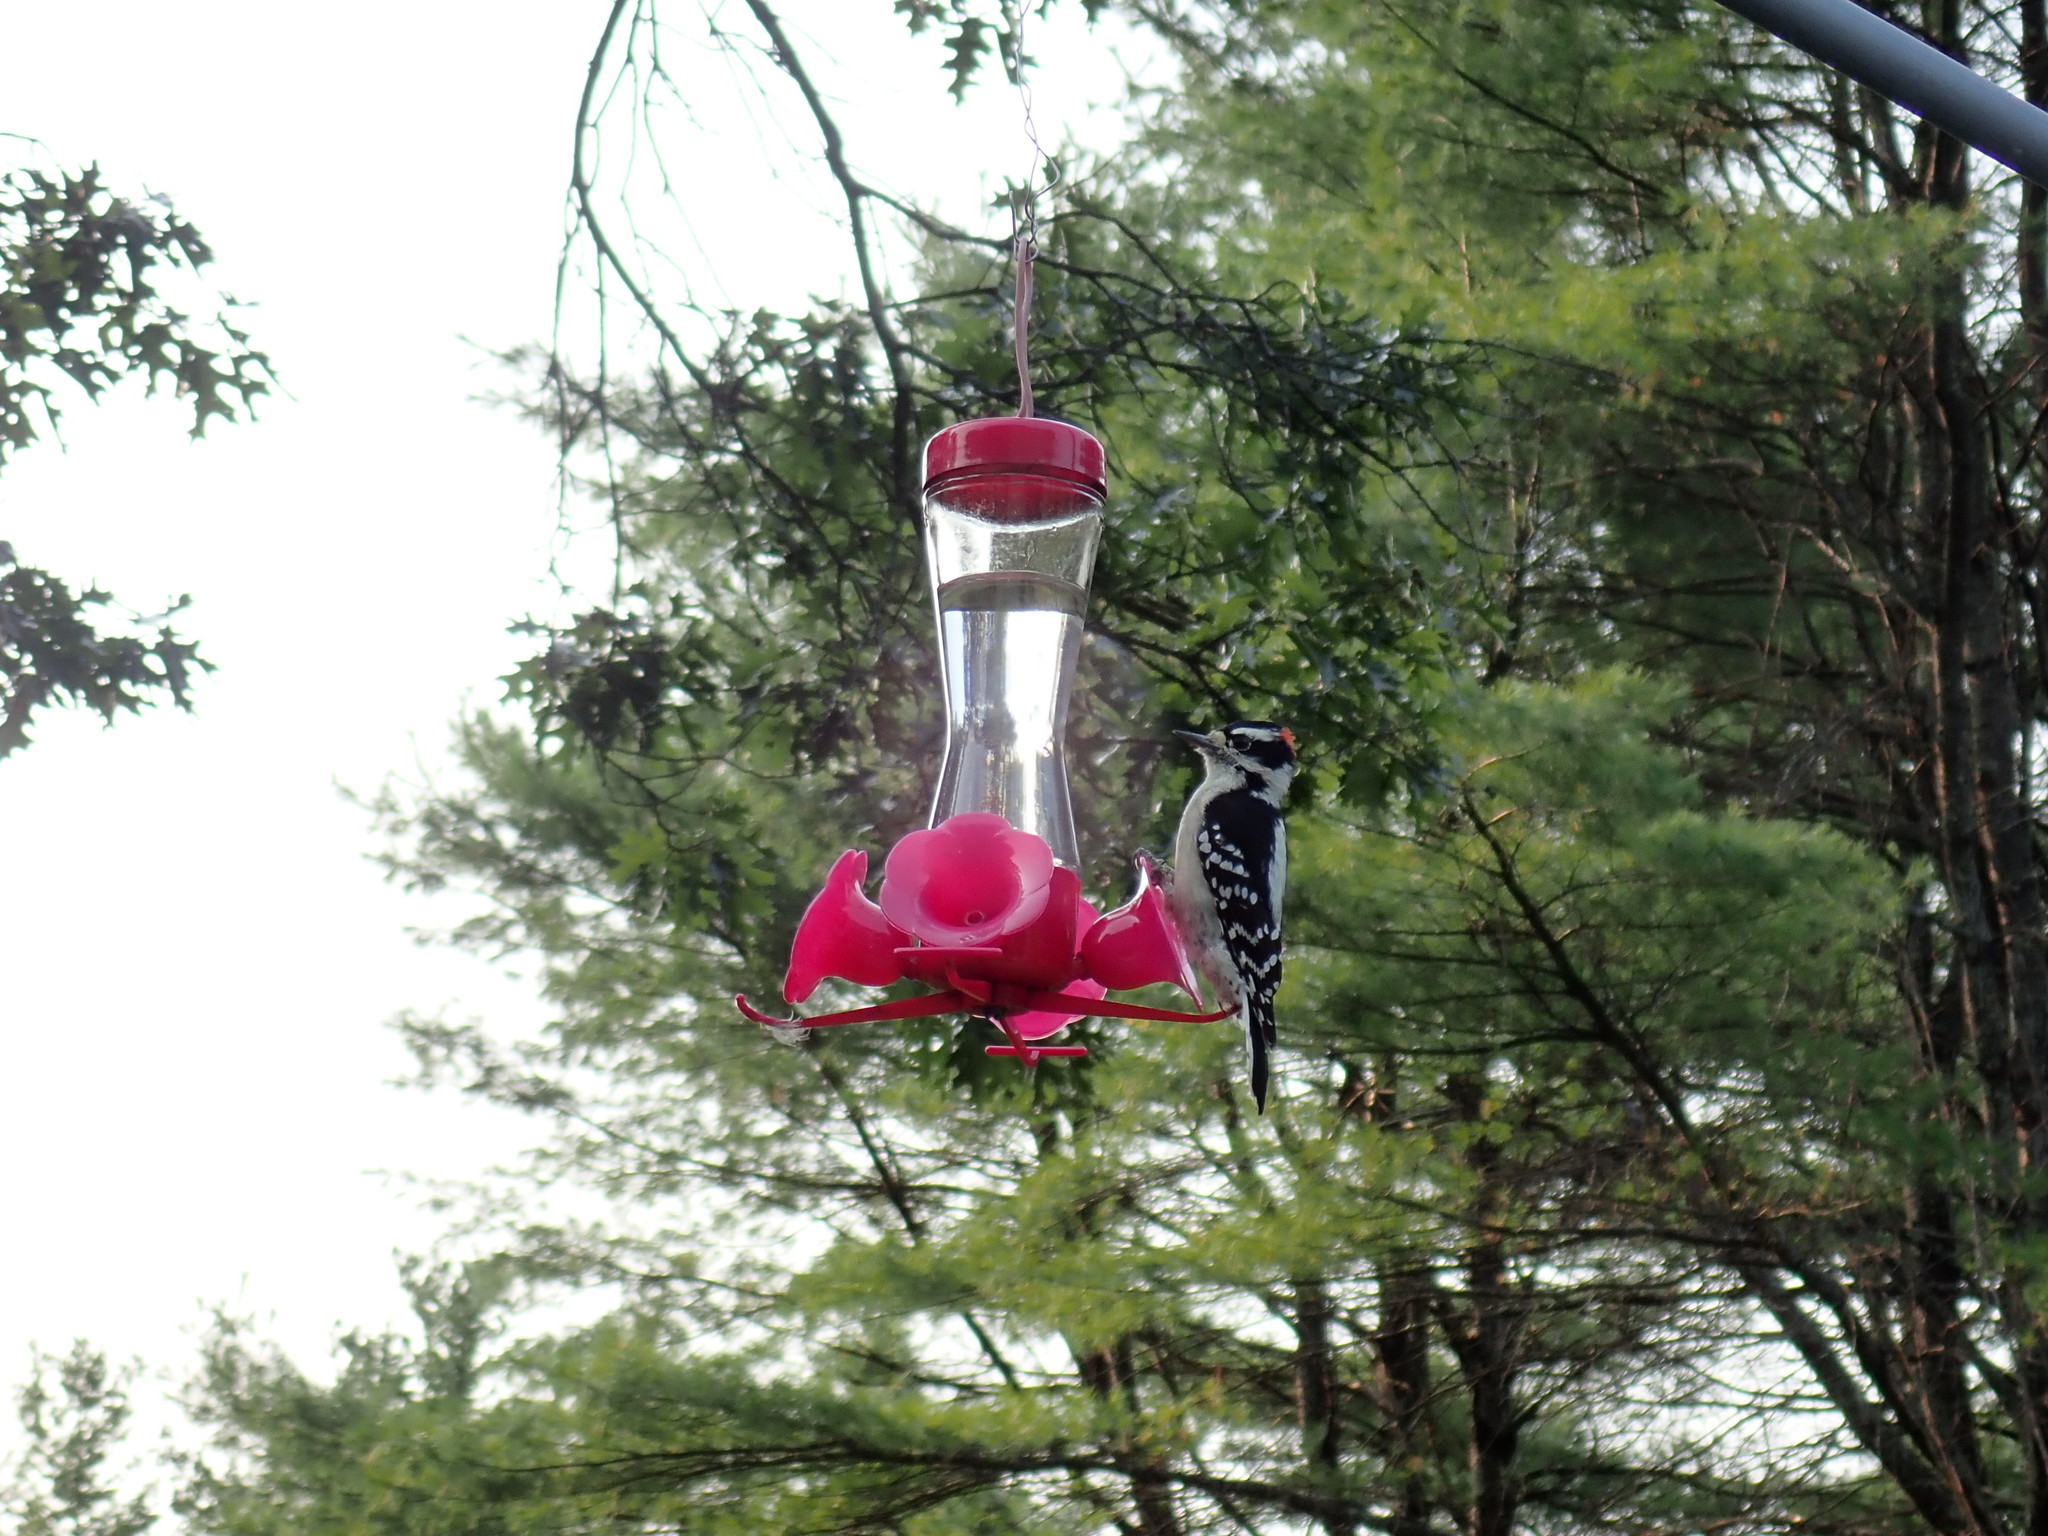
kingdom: Animalia
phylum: Chordata
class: Aves
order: Piciformes
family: Picidae
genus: Dryobates
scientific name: Dryobates pubescens
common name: Downy woodpecker
